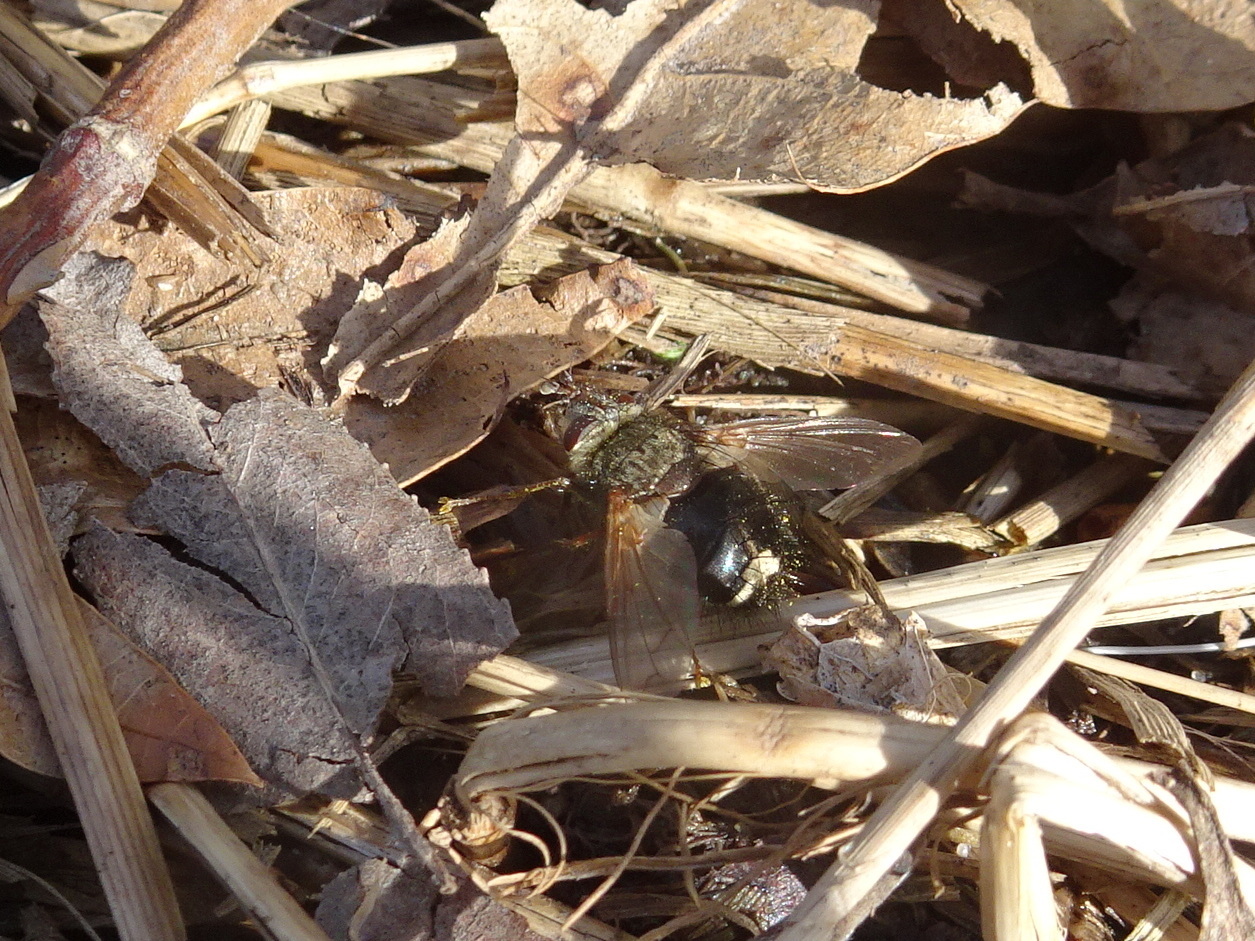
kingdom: Animalia
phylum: Arthropoda
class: Insecta
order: Diptera
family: Tachinidae
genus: Epalpus
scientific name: Epalpus signifer
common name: Early tachinid fly
